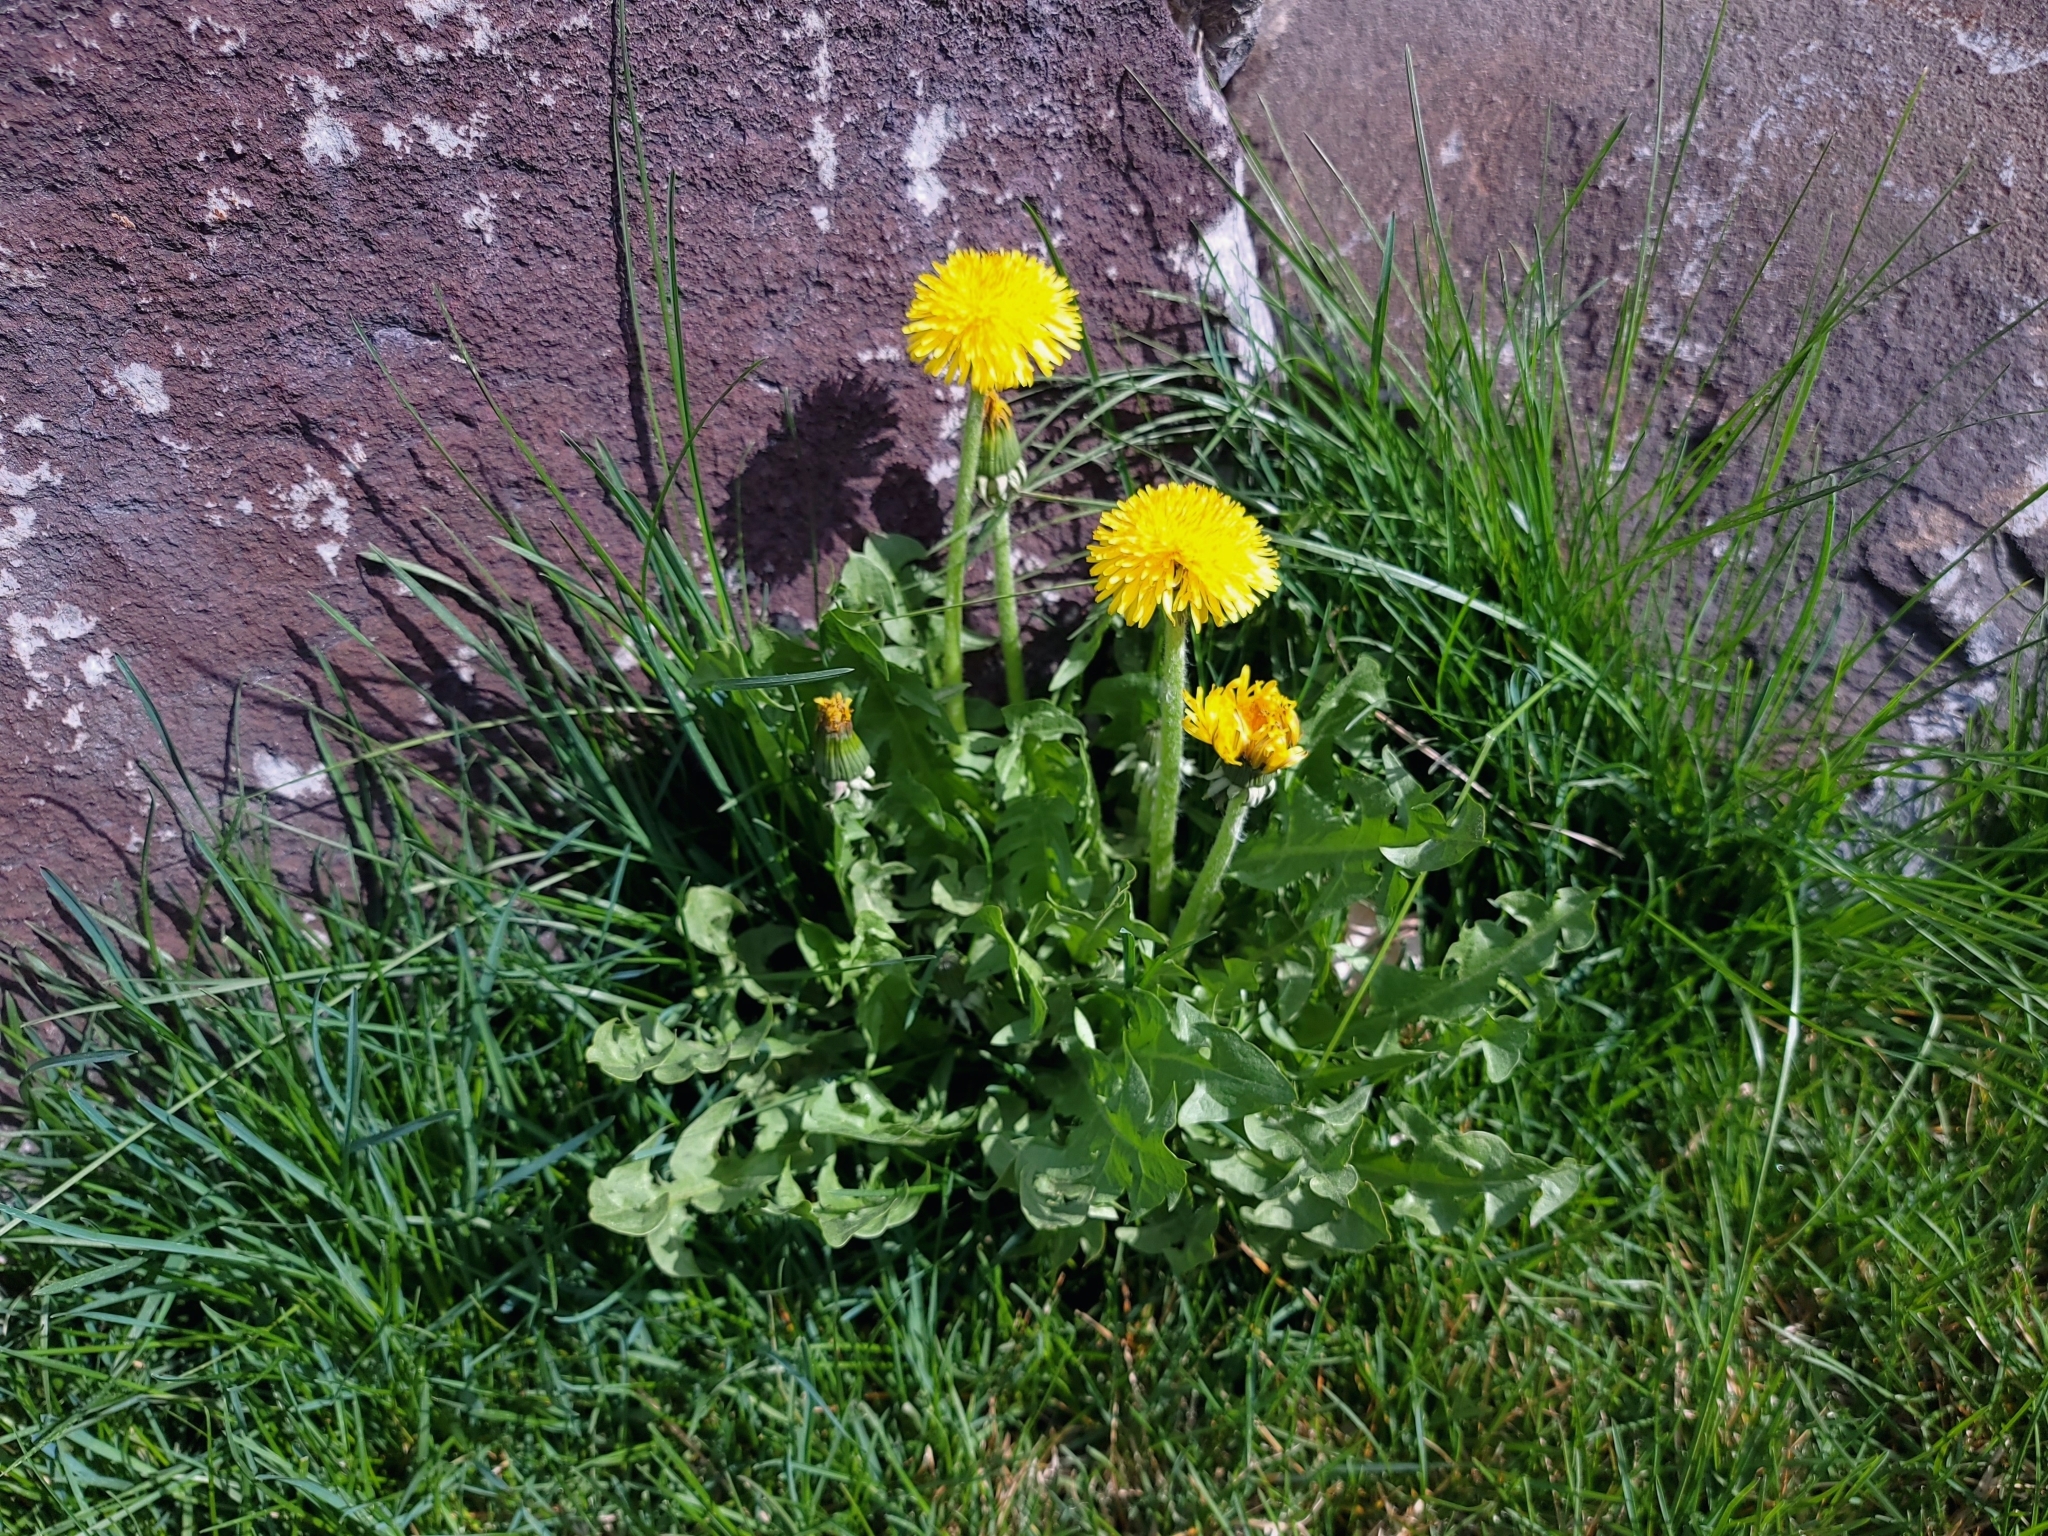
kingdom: Plantae
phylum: Tracheophyta
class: Magnoliopsida
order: Asterales
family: Asteraceae
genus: Taraxacum
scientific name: Taraxacum officinale
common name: Common dandelion
